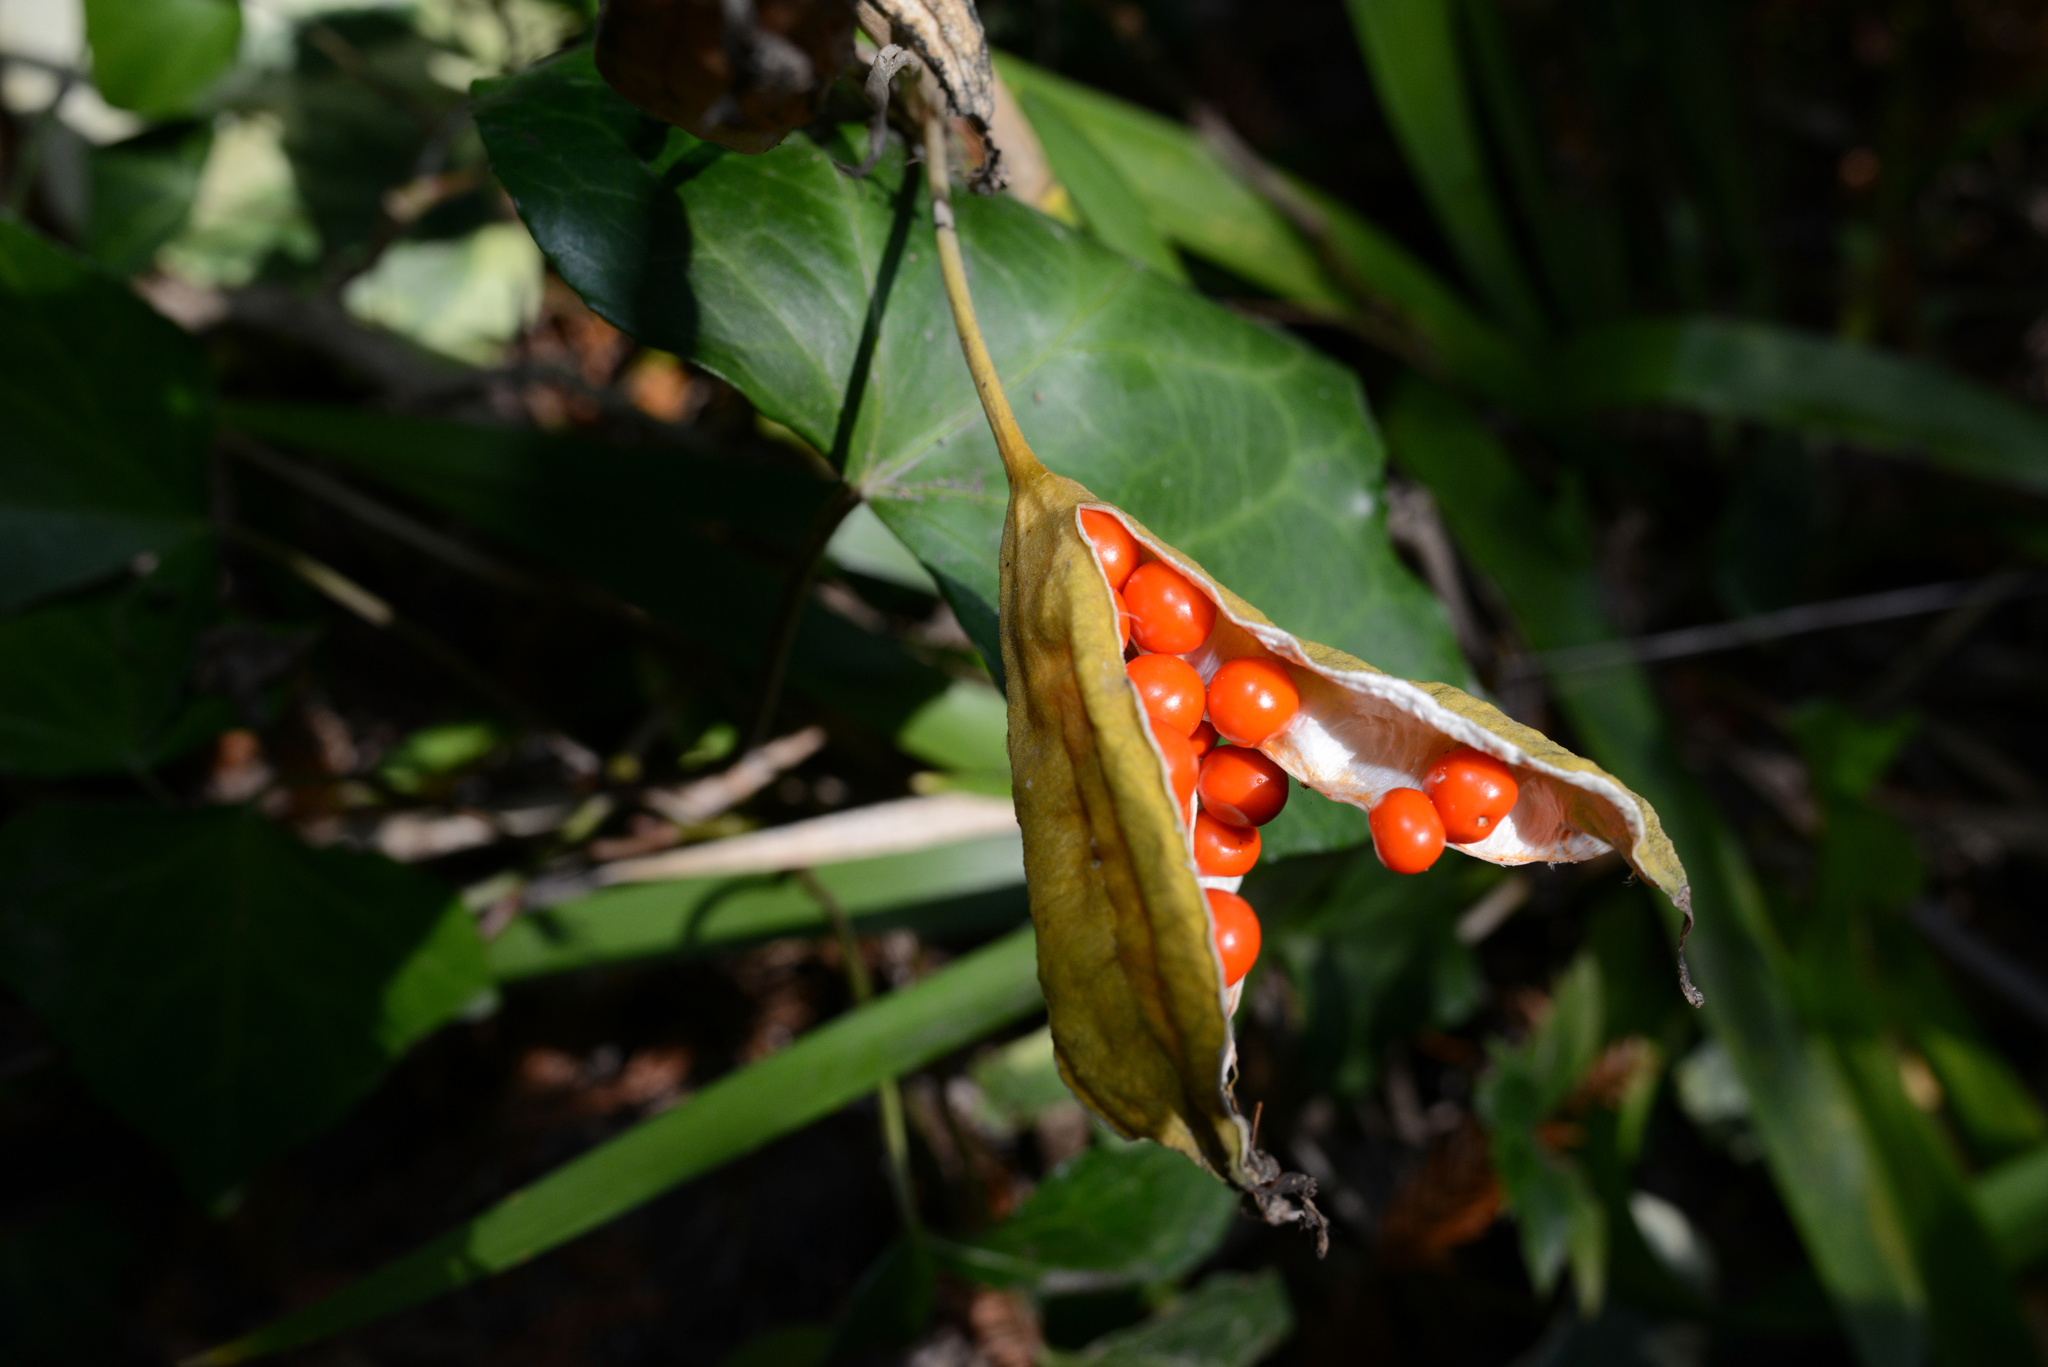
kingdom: Plantae
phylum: Tracheophyta
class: Liliopsida
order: Asparagales
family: Iridaceae
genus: Iris
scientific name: Iris foetidissima
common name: Stinking iris
